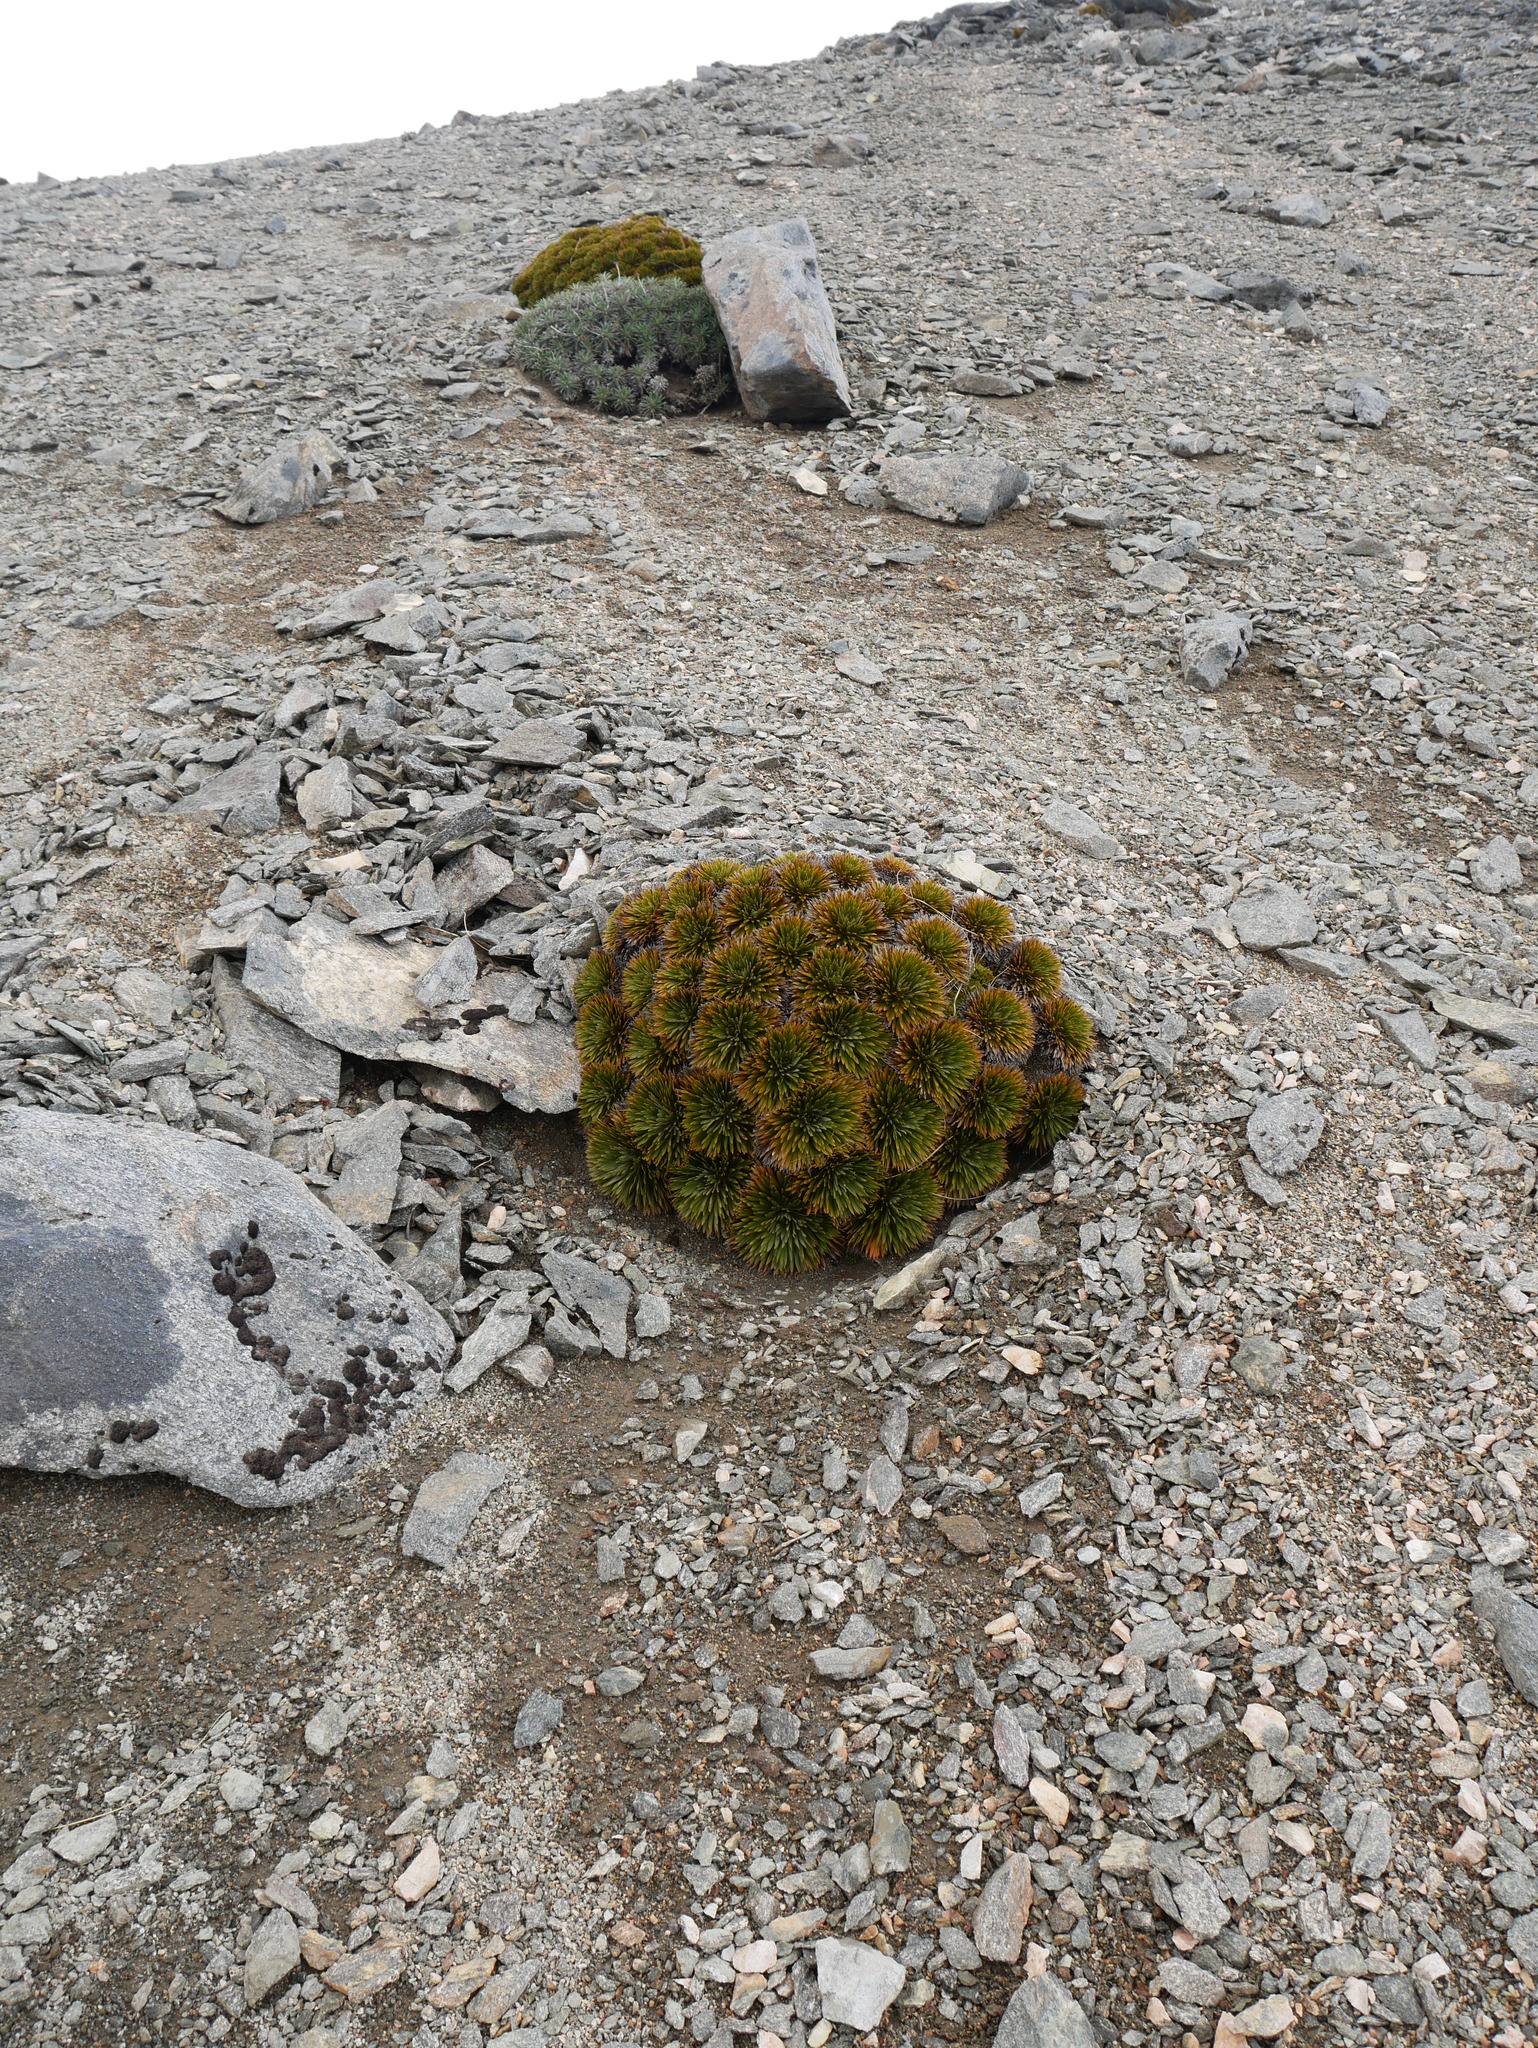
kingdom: Plantae
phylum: Tracheophyta
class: Magnoliopsida
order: Apiales
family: Apiaceae
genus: Aciphylla
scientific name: Aciphylla crosby-smithii
